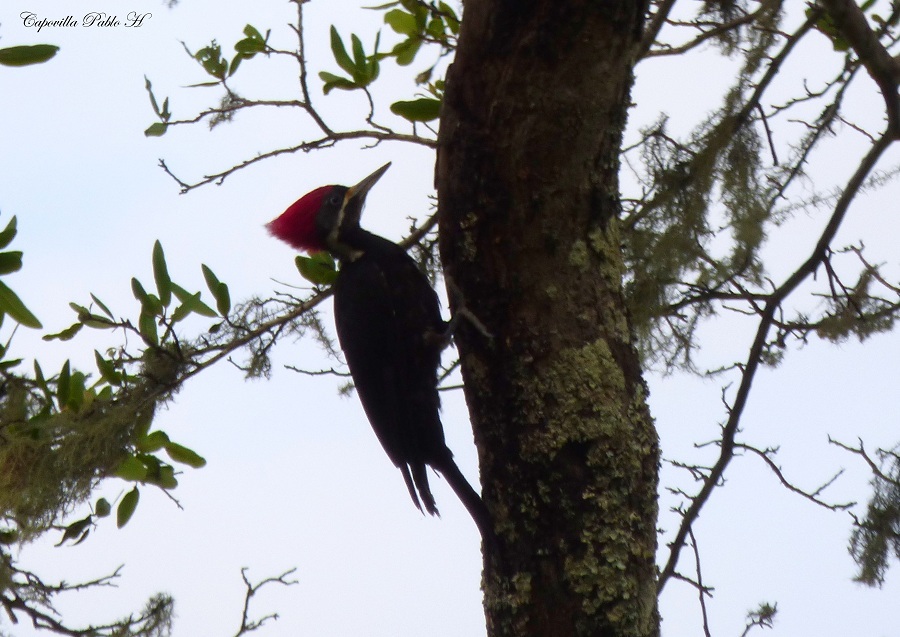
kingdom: Animalia
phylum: Chordata
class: Aves
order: Piciformes
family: Picidae
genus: Dryocopus
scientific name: Dryocopus
